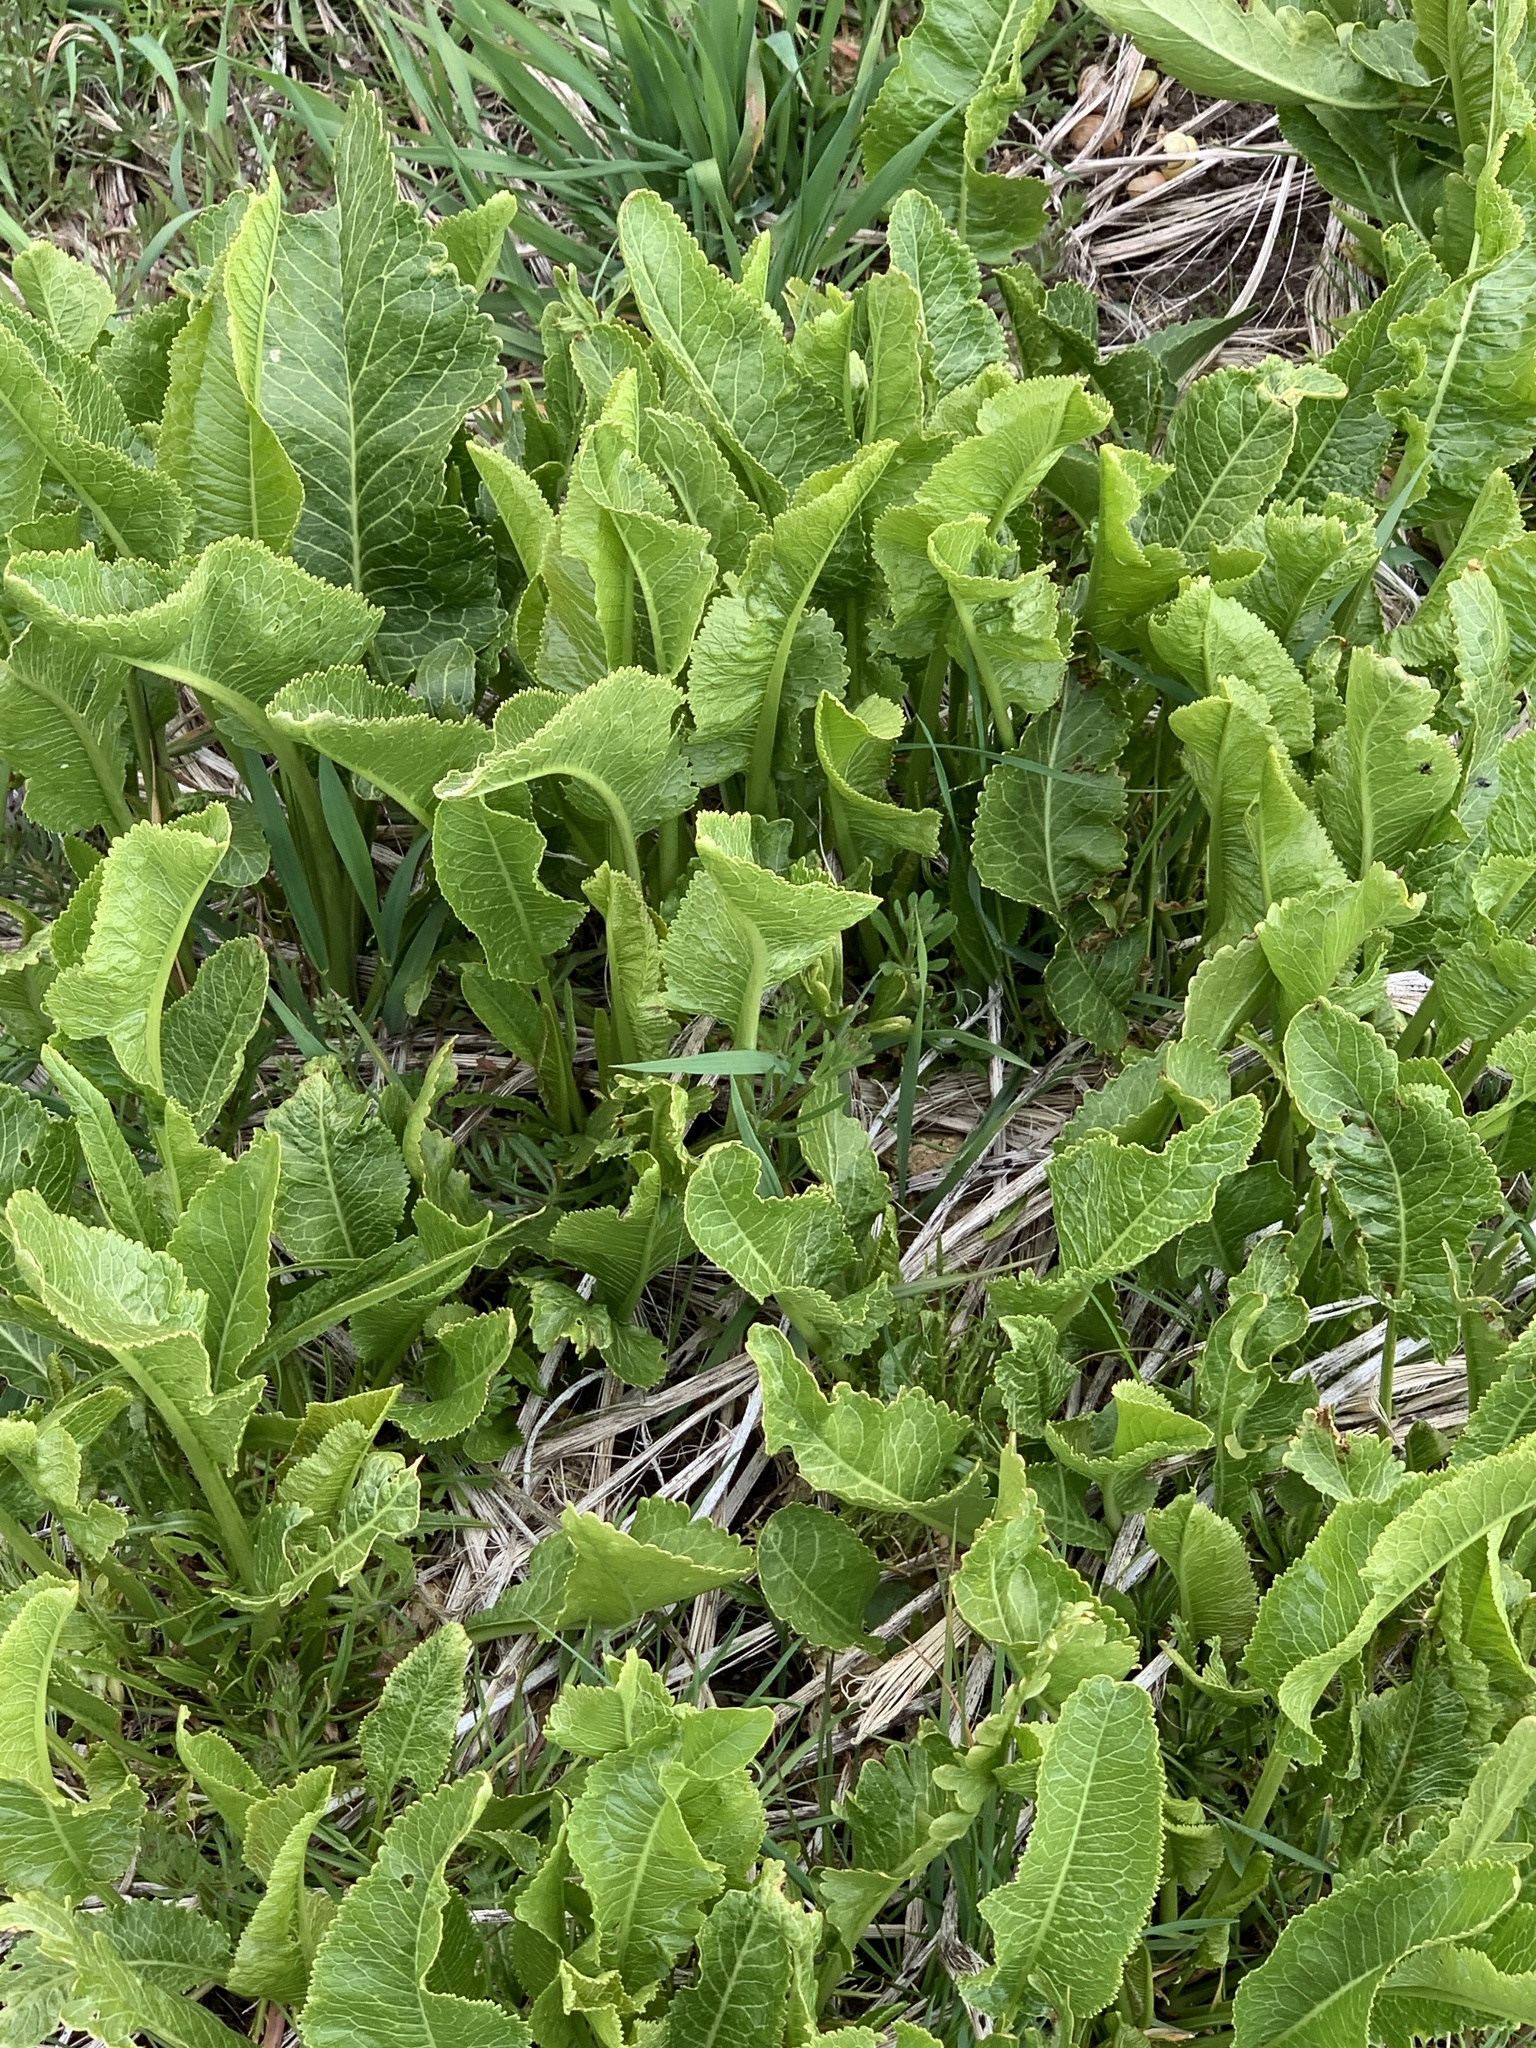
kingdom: Plantae
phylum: Tracheophyta
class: Magnoliopsida
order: Brassicales
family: Brassicaceae
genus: Armoracia
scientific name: Armoracia rusticana
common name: Horseradish
